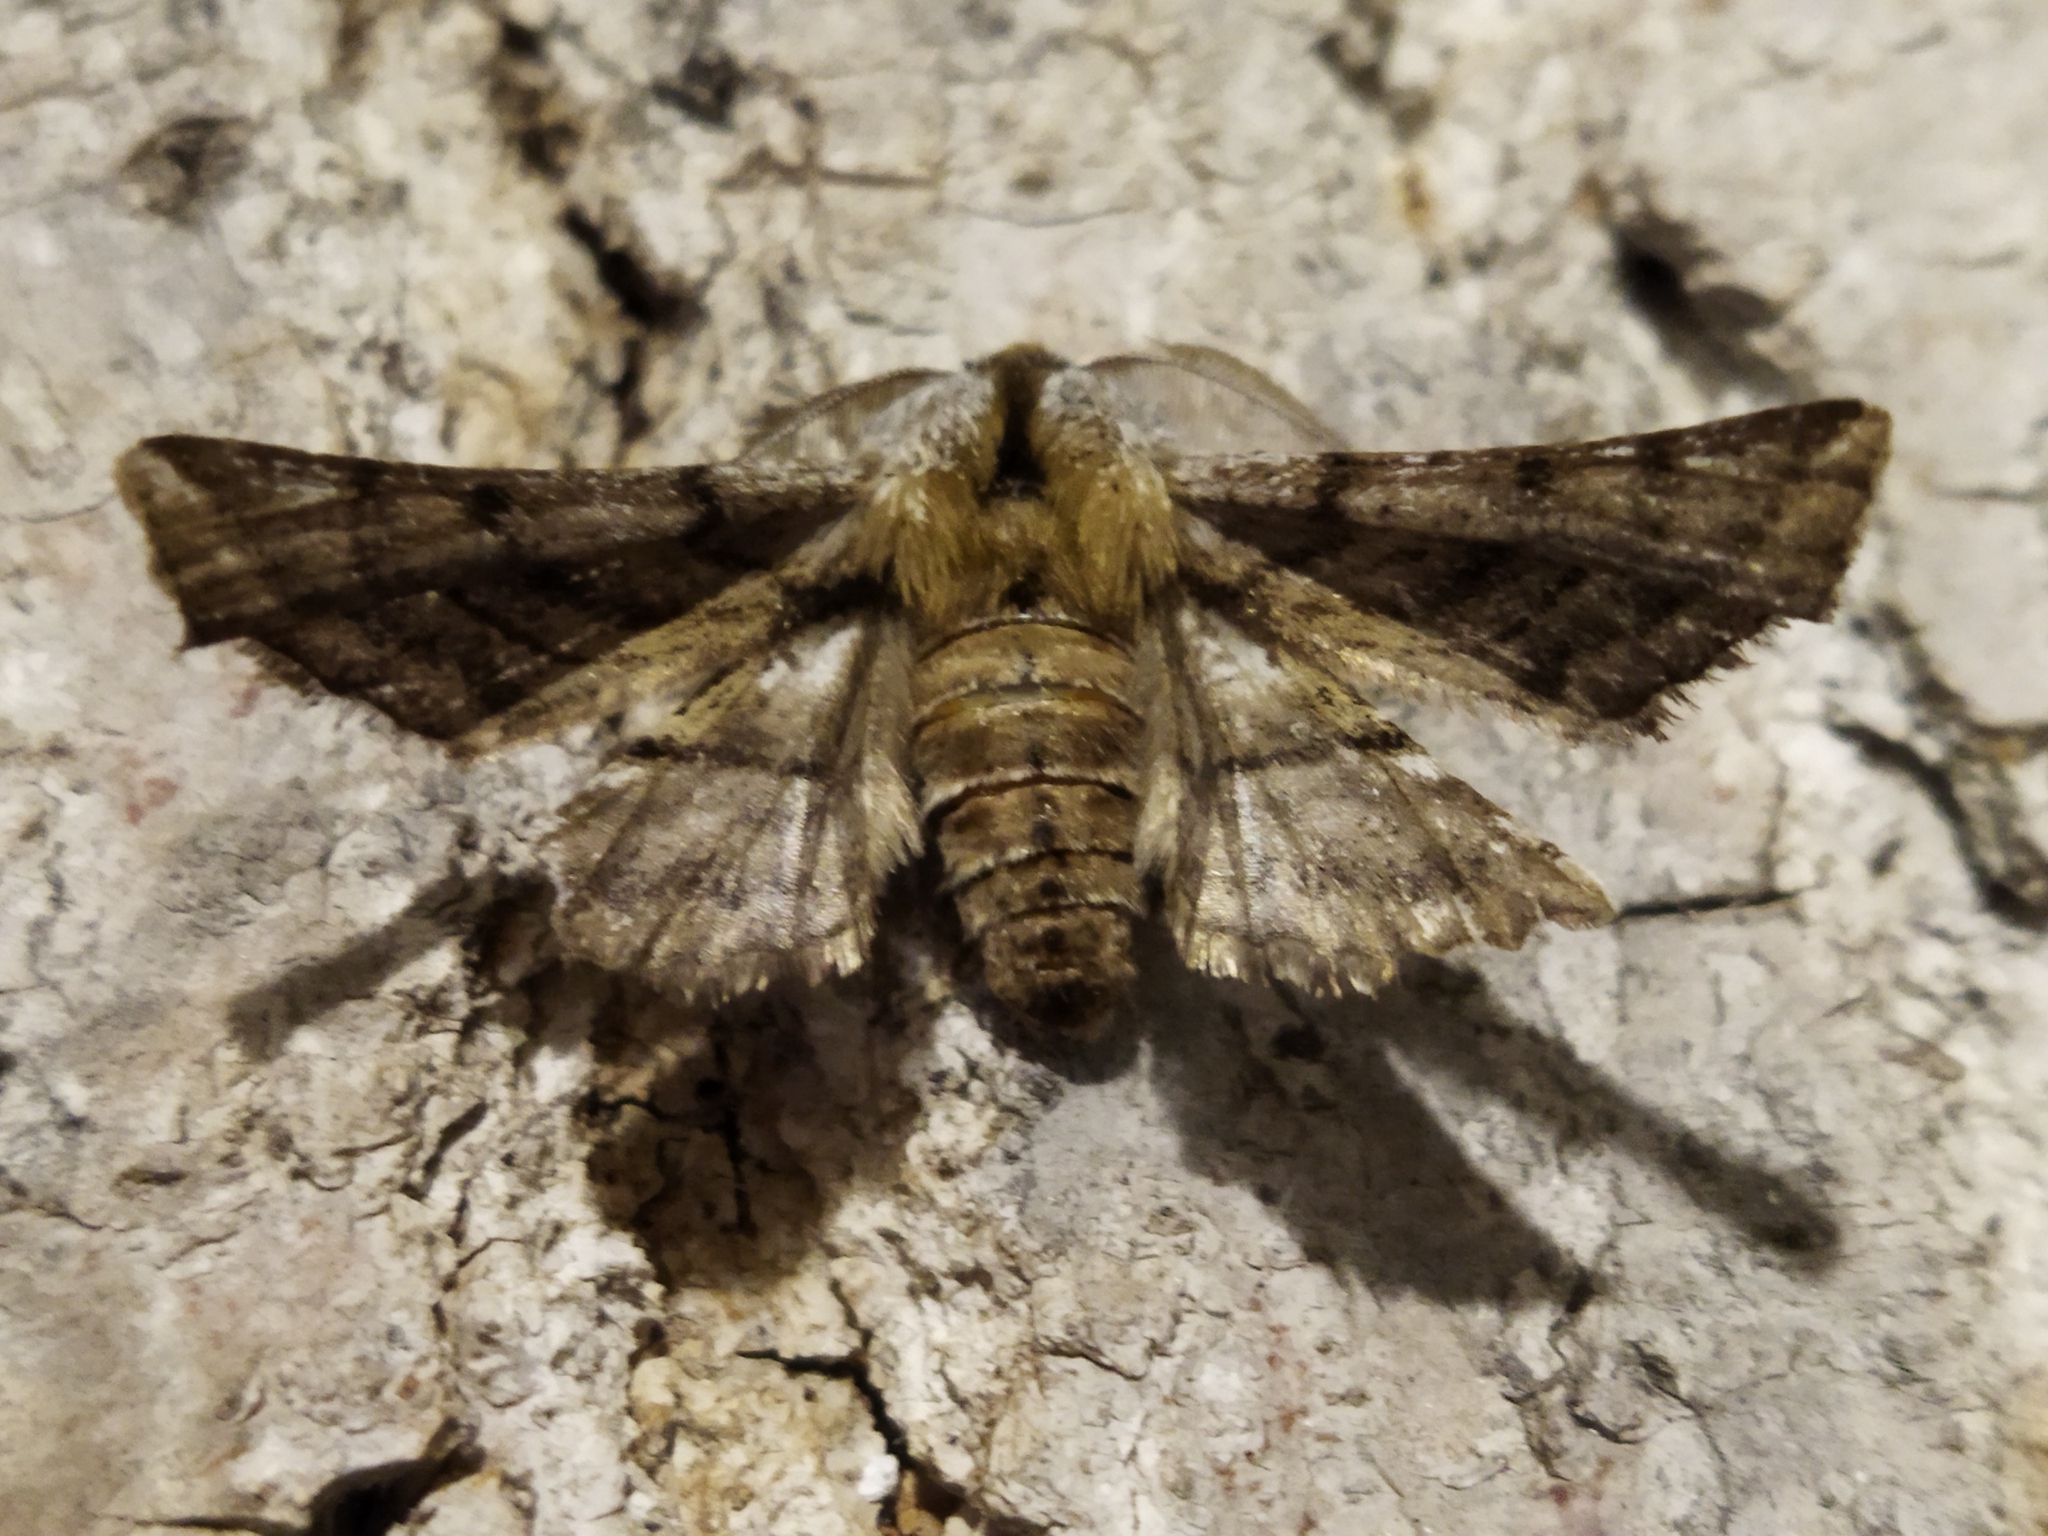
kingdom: Animalia
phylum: Arthropoda
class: Insecta
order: Lepidoptera
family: Geometridae
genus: Apochima
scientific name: Apochima flabellaria
